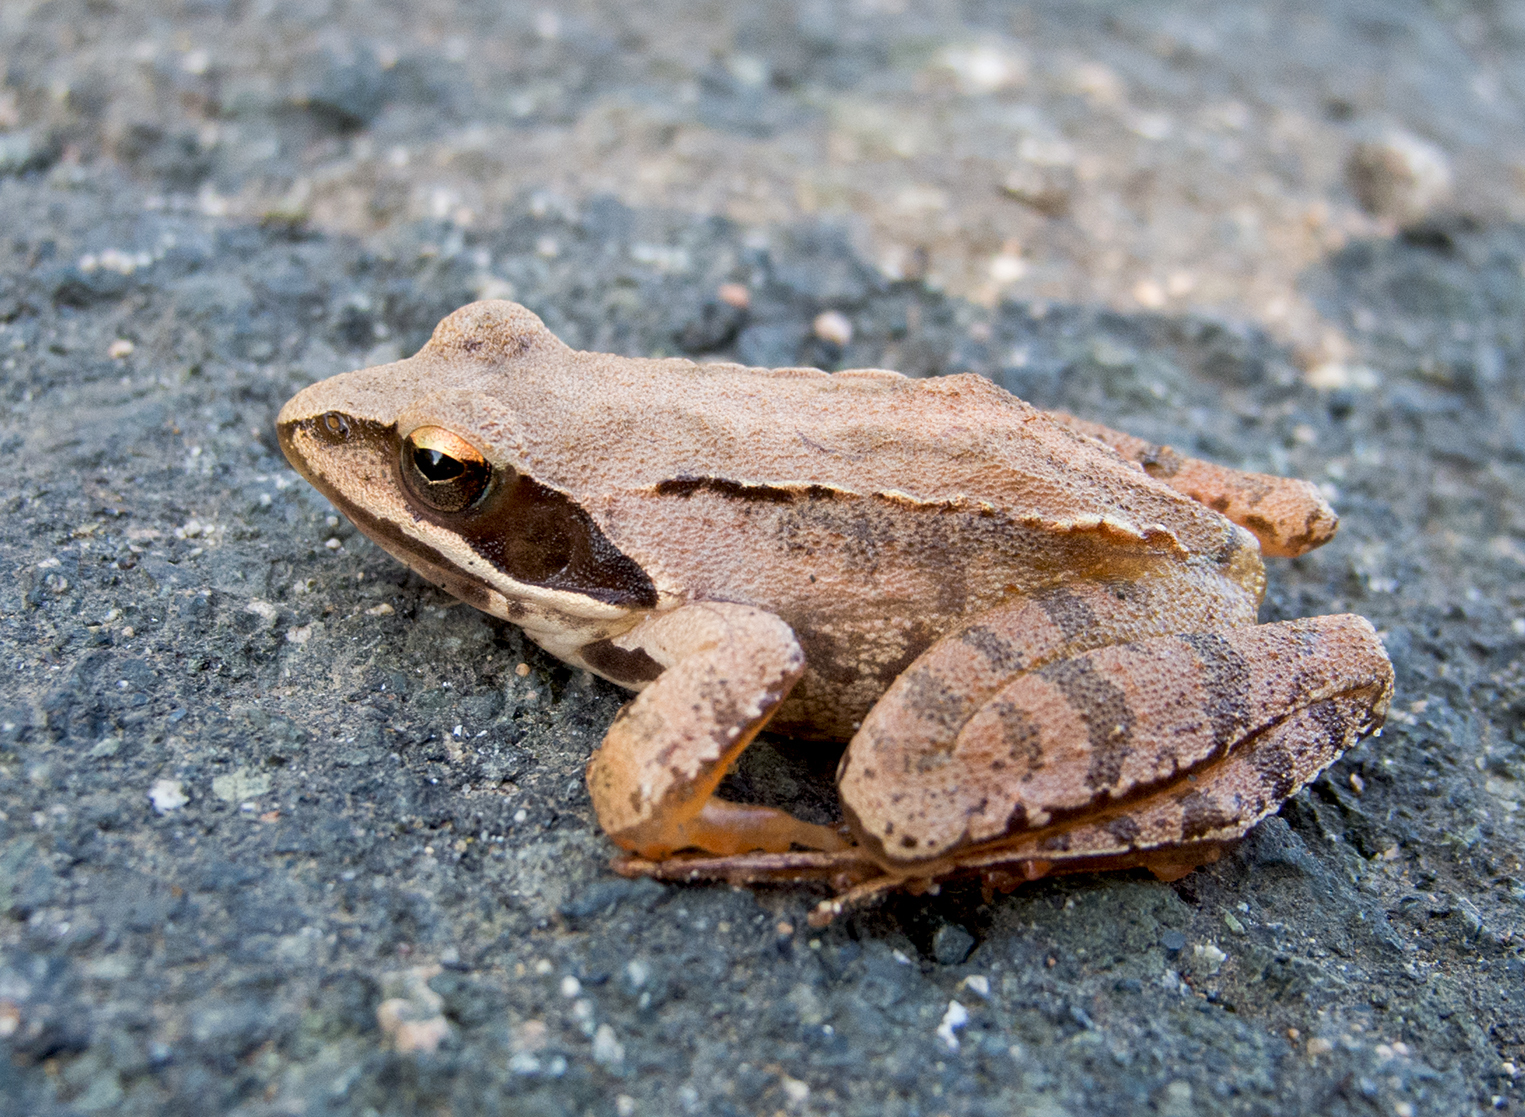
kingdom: Animalia
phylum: Chordata
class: Amphibia
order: Anura
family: Ranidae
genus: Rana
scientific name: Rana dalmatina
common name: Agile frog
